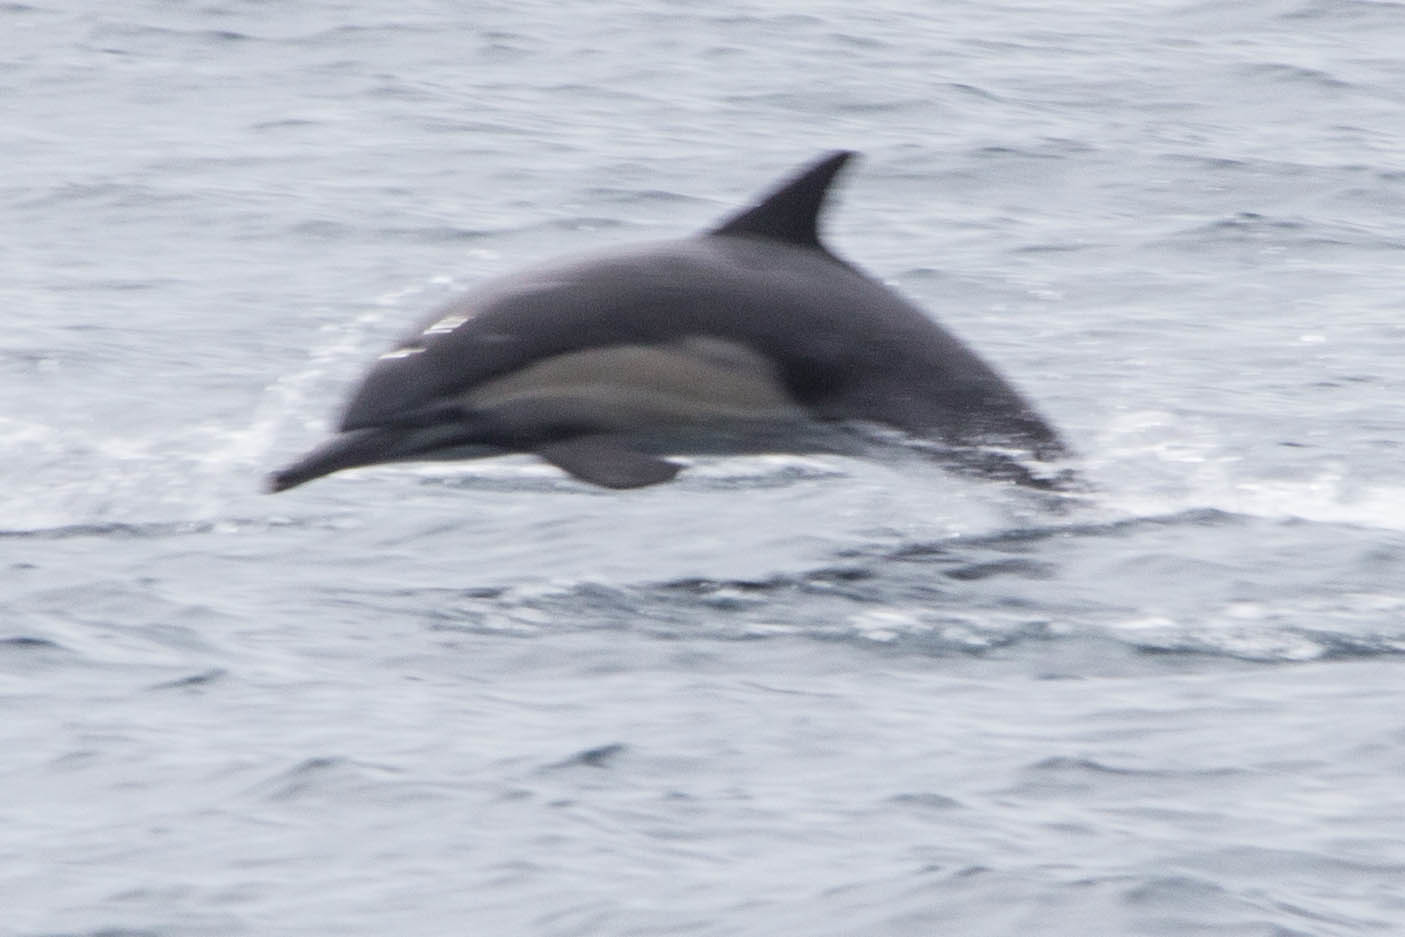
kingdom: Animalia
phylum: Chordata
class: Mammalia
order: Cetacea
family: Delphinidae
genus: Delphinus
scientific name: Delphinus delphis
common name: Common dolphin
